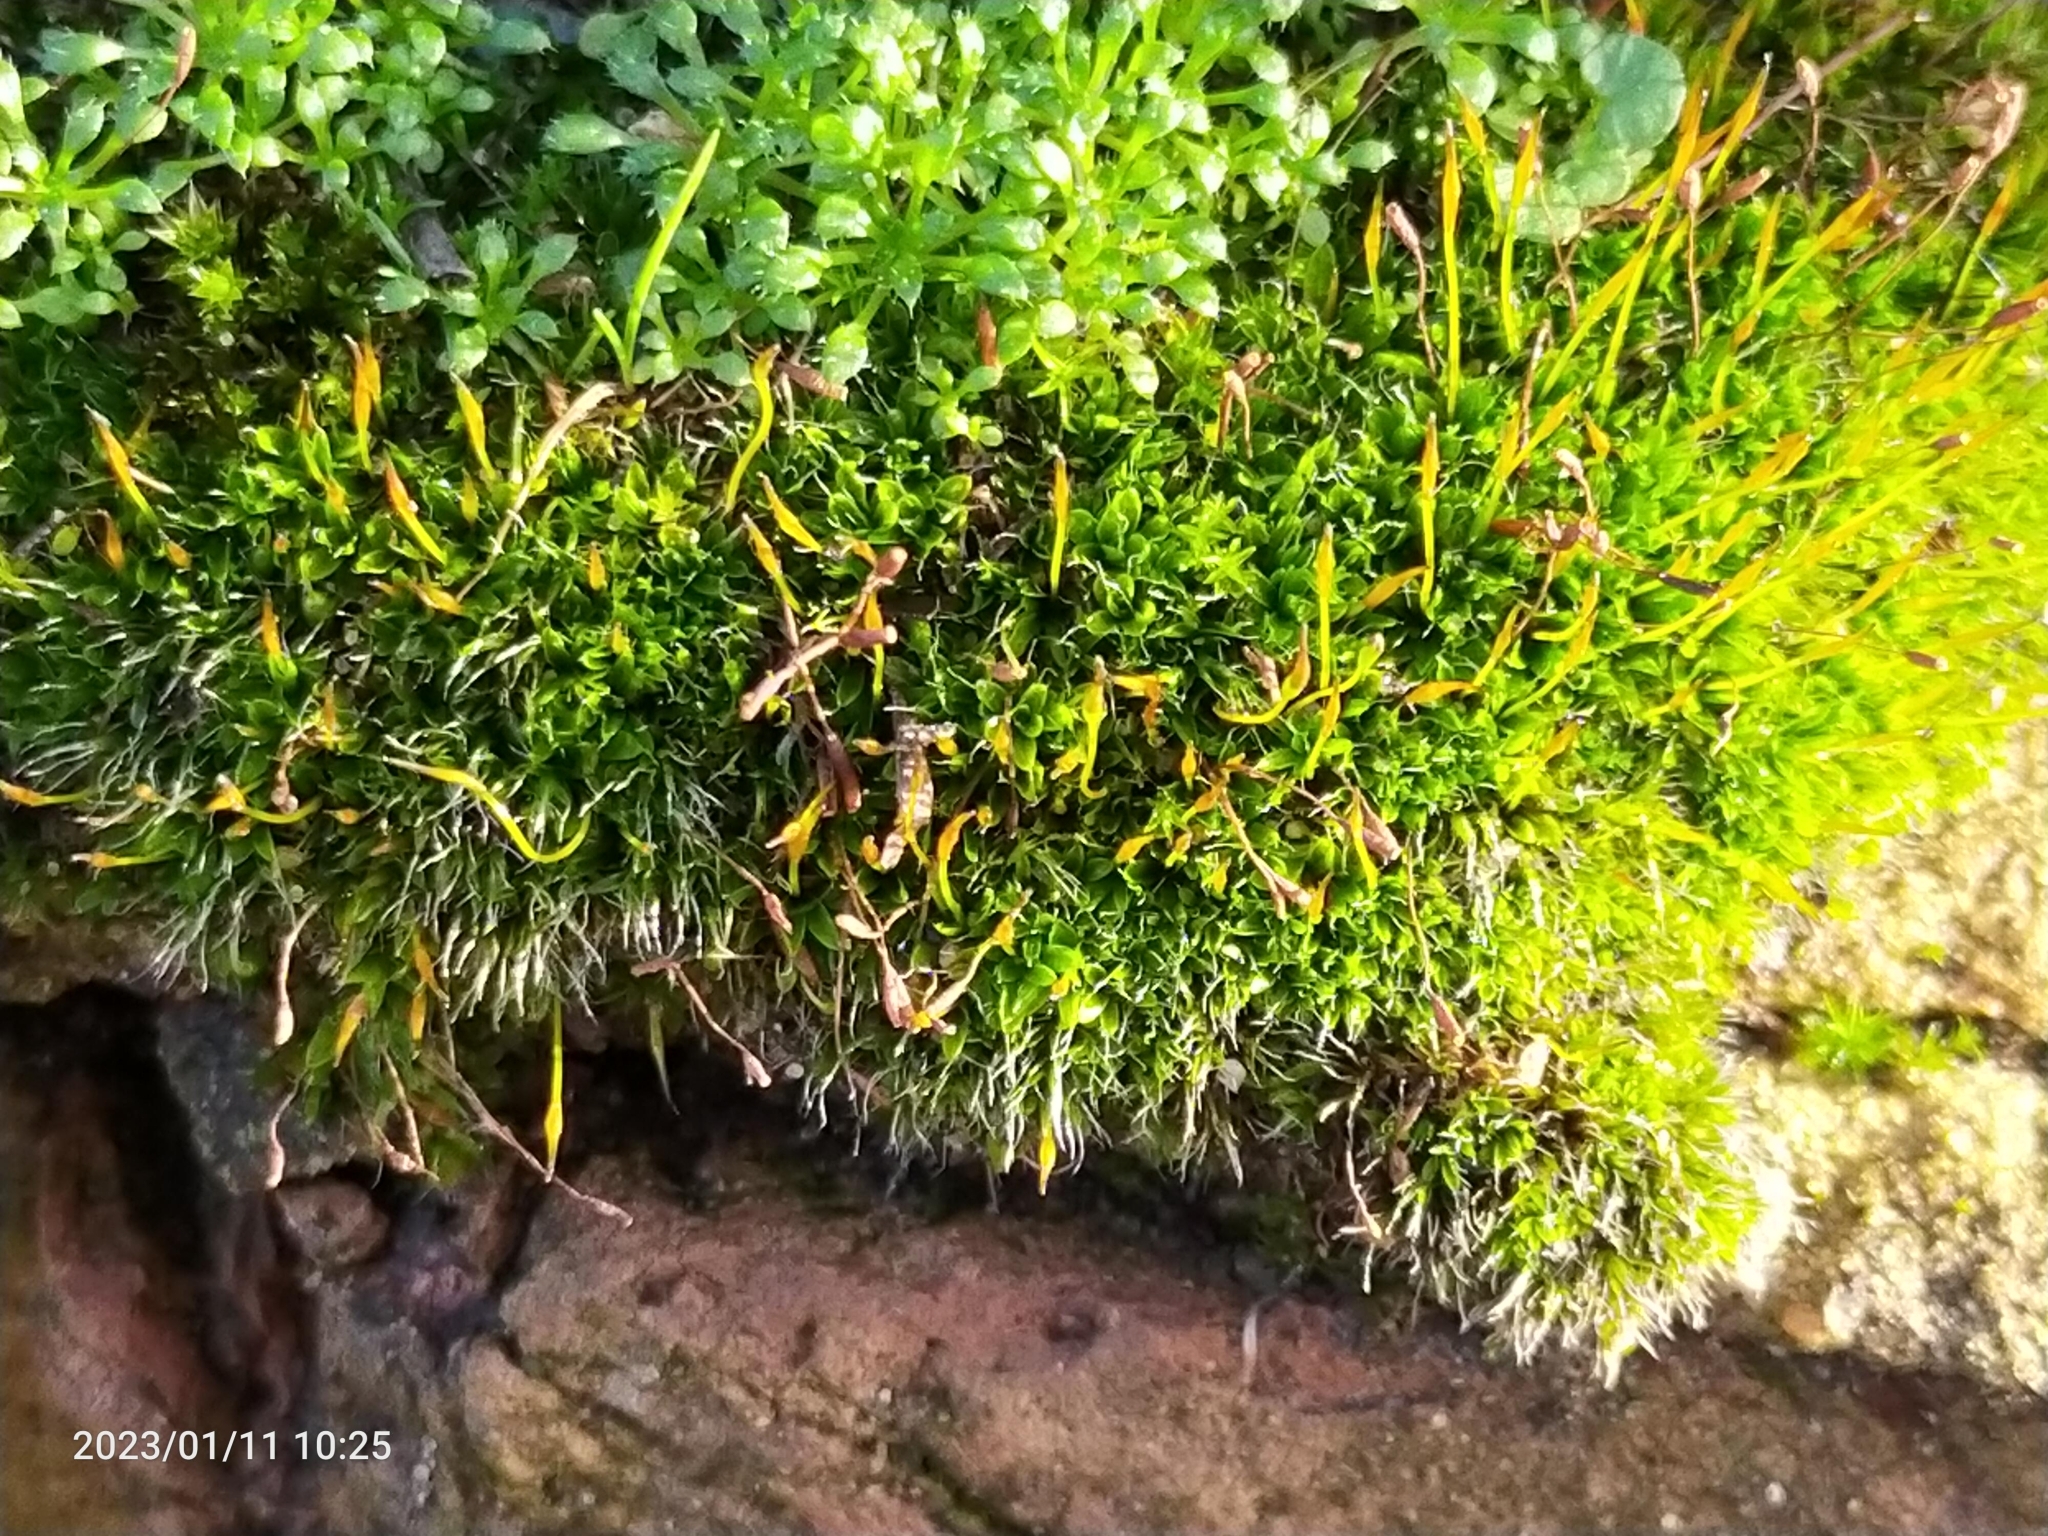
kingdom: Plantae
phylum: Bryophyta
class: Bryopsida
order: Pottiales
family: Pottiaceae
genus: Tortula
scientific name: Tortula muralis
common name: Wall screw-moss
